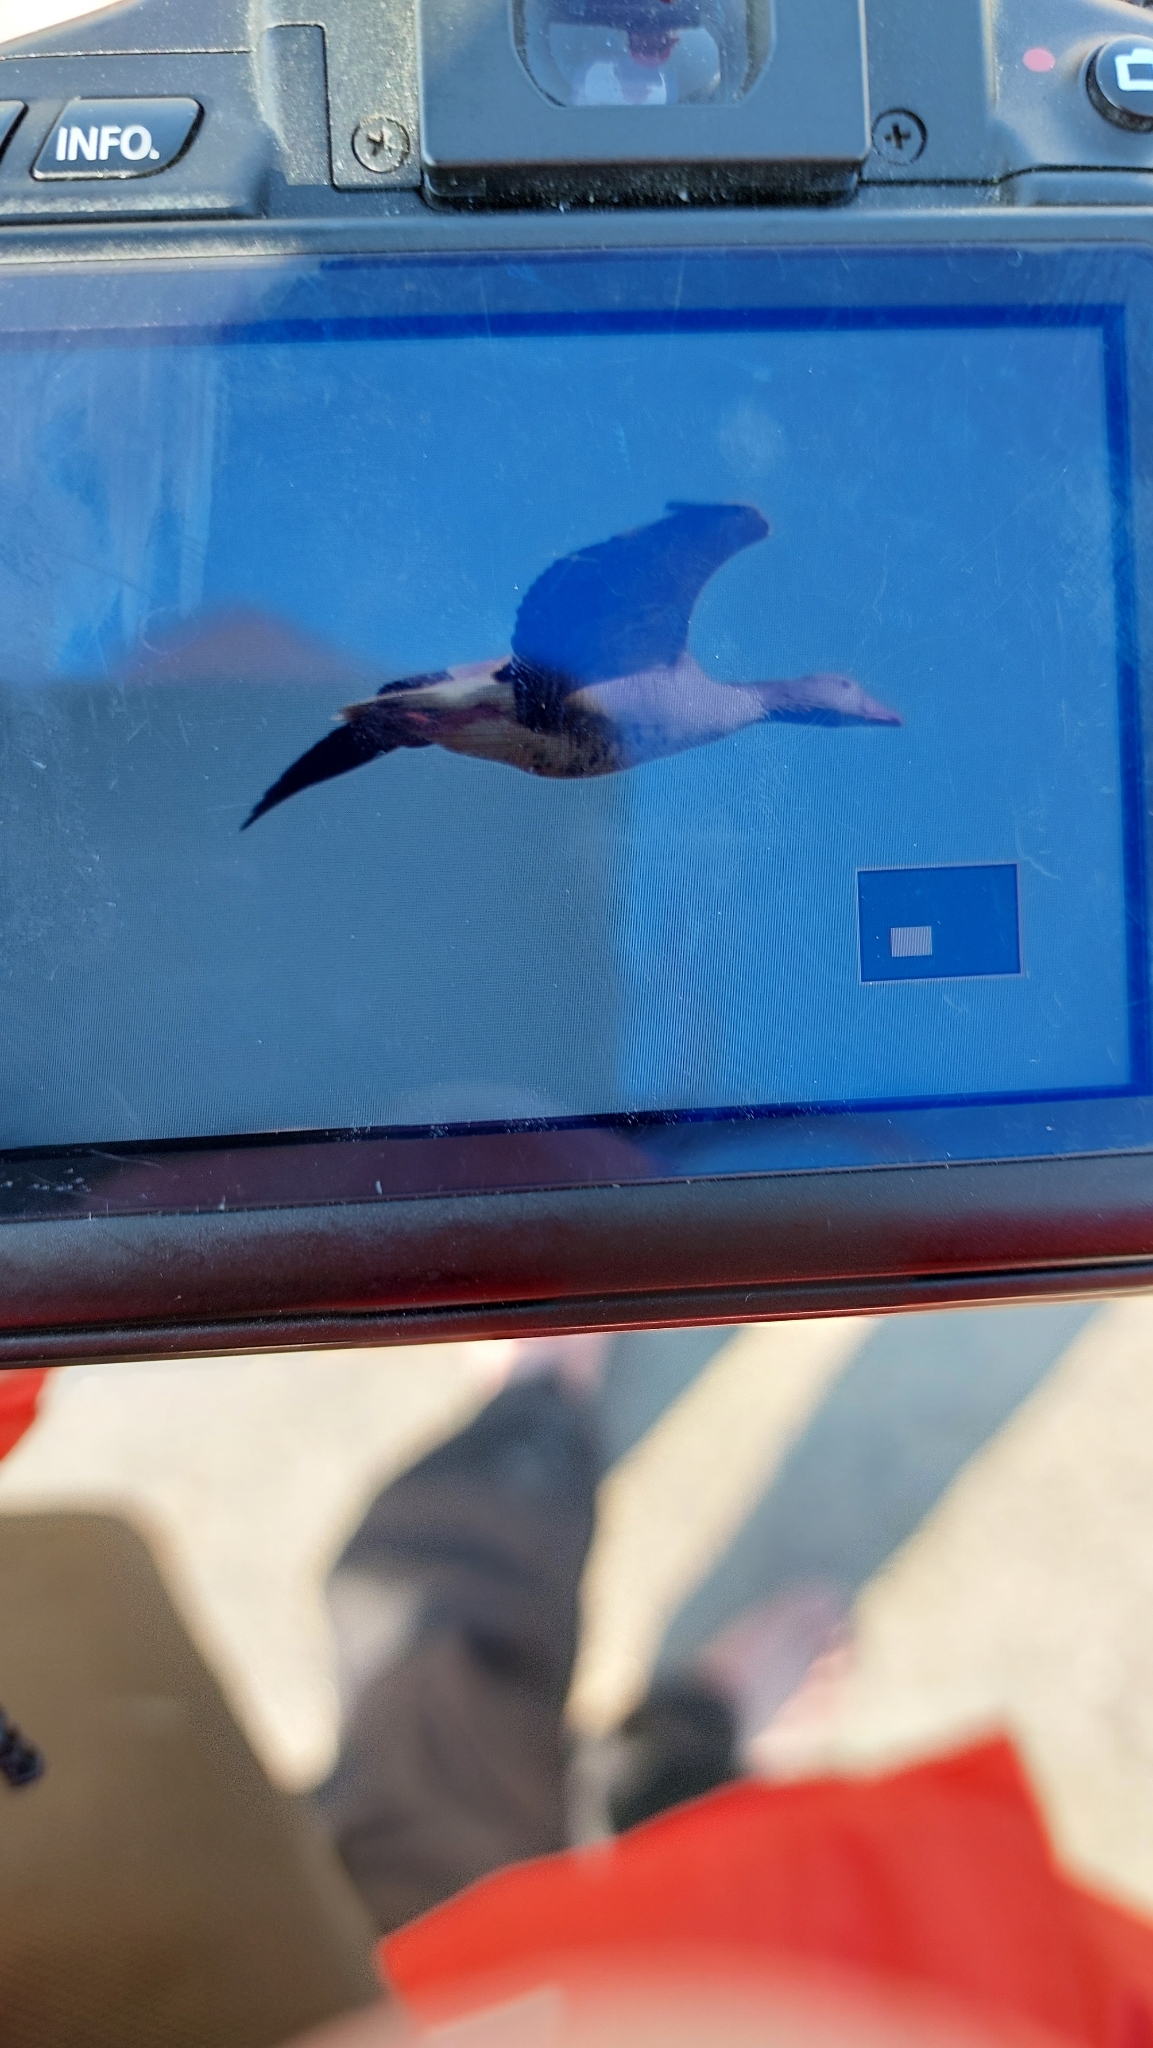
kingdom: Animalia
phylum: Chordata
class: Aves
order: Anseriformes
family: Anatidae
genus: Anser
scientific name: Anser anser
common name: Greylag goose
